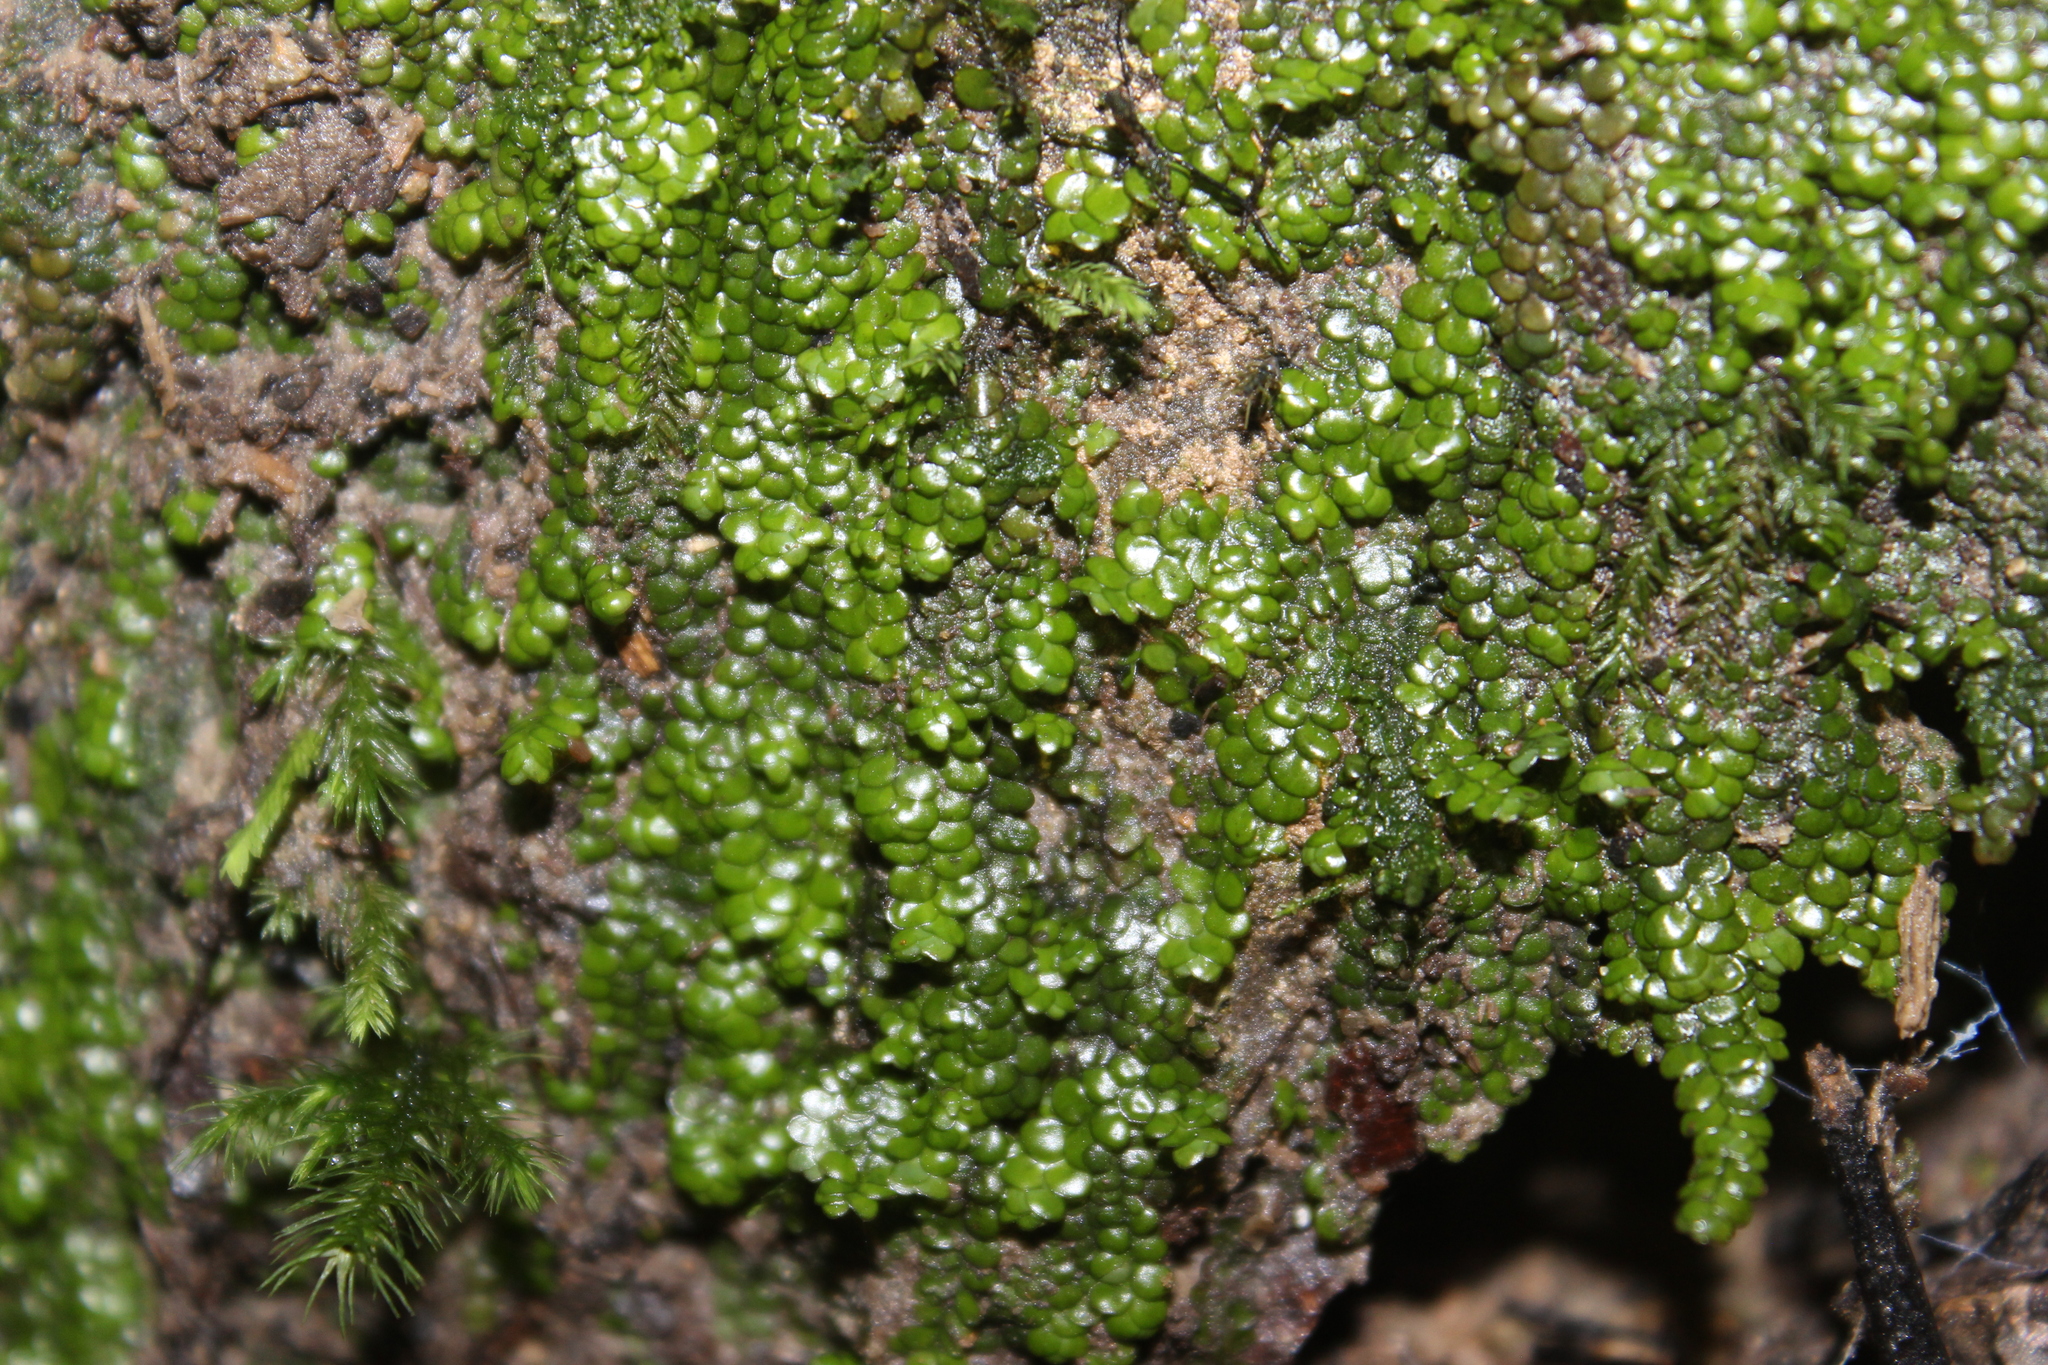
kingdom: Plantae
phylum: Marchantiophyta
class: Jungermanniopsida
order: Porellales
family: Radulaceae
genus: Radula
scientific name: Radula marginata
